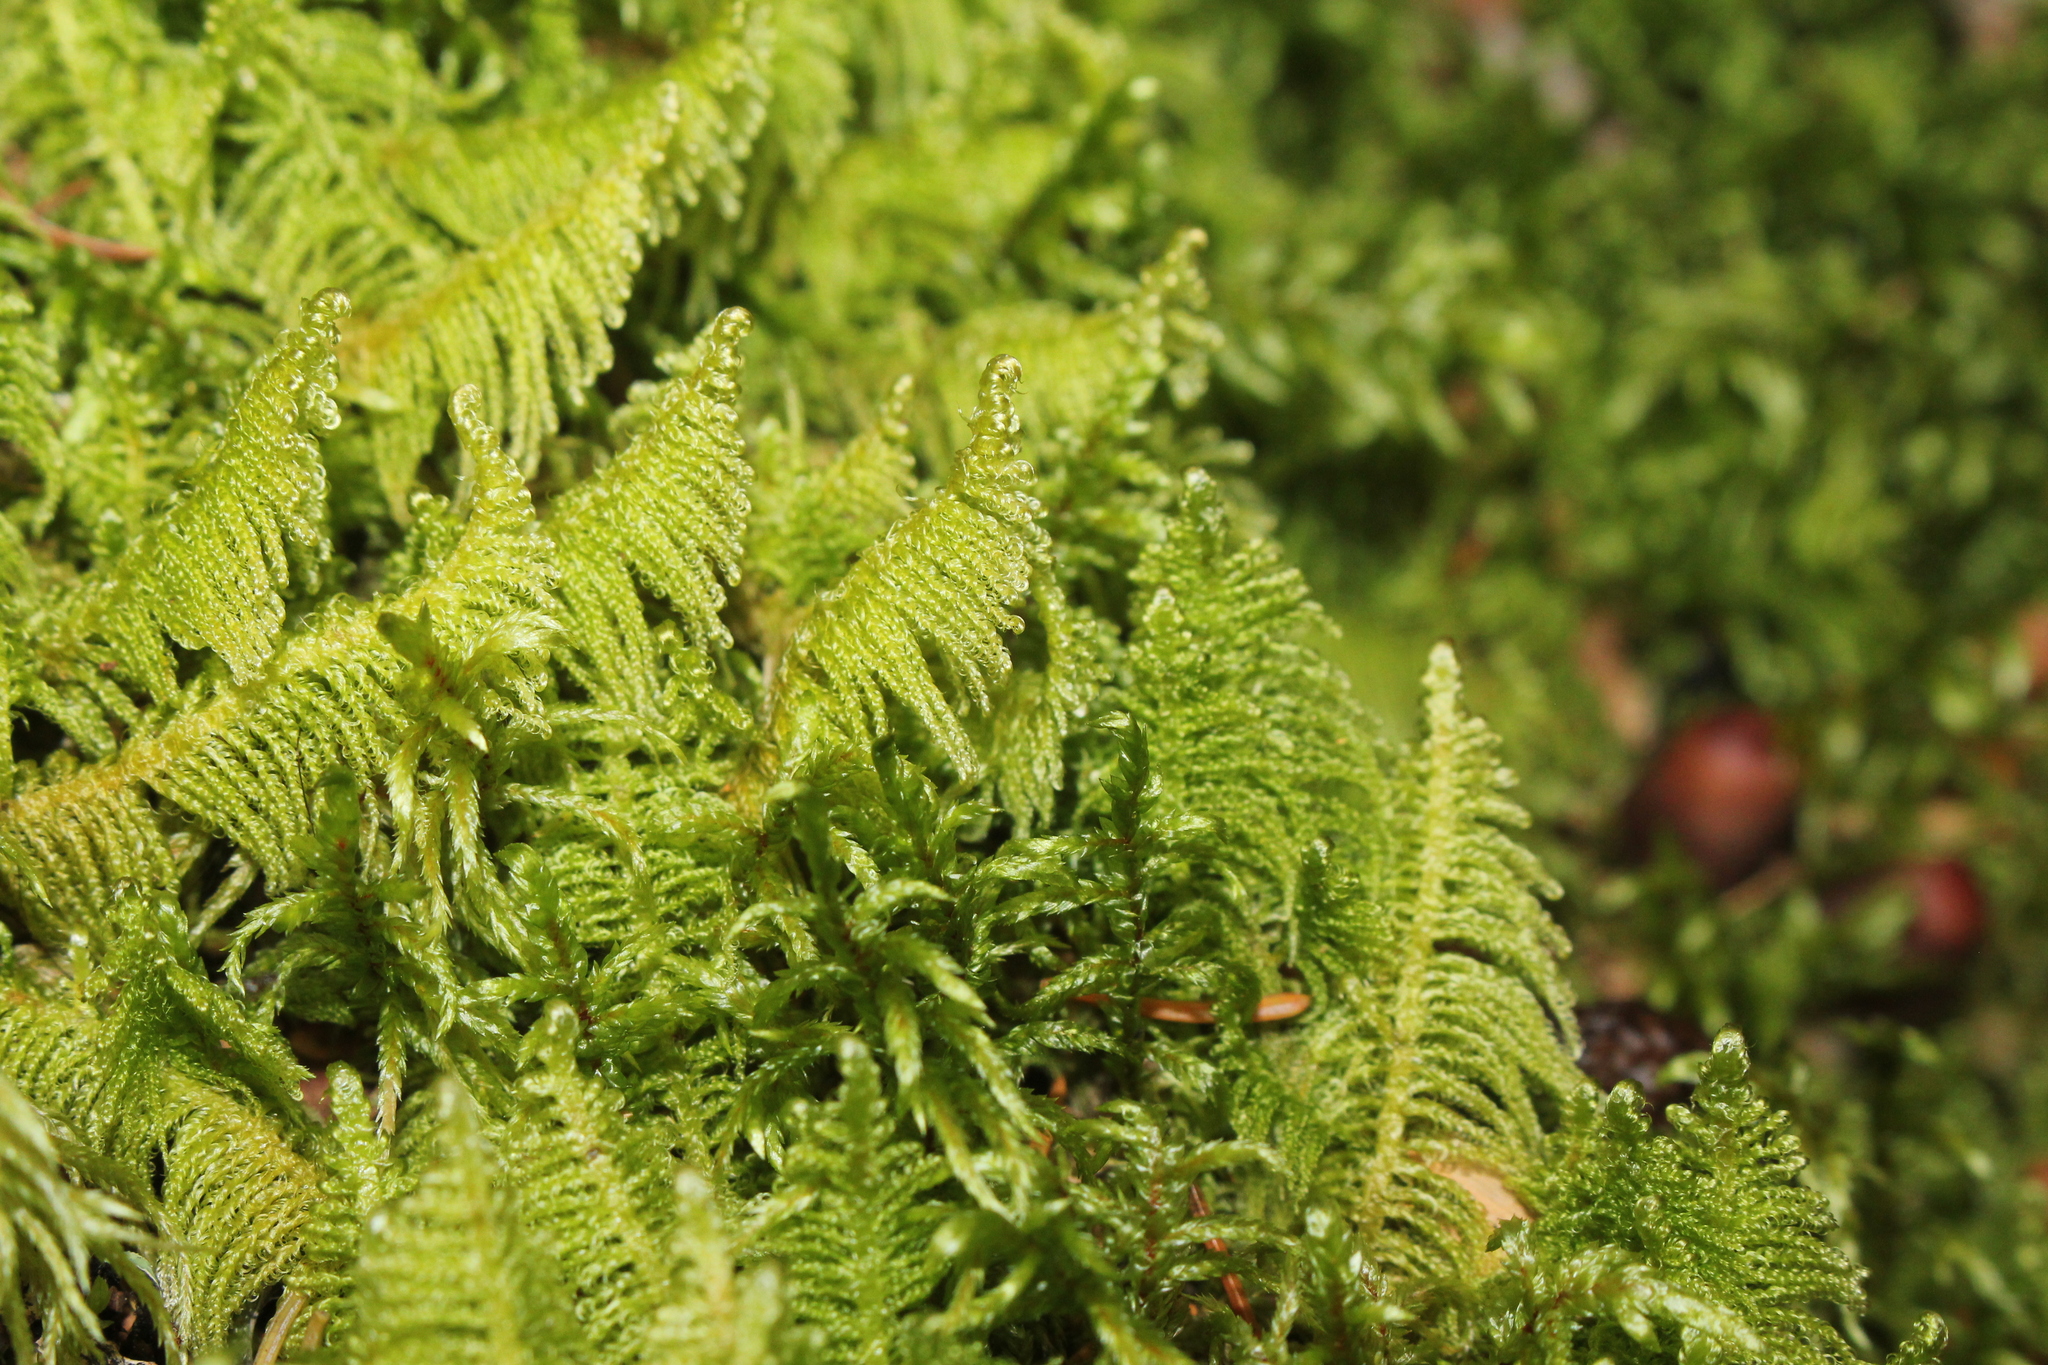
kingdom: Plantae
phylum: Bryophyta
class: Bryopsida
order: Hypnales
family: Pylaisiaceae
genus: Ptilium
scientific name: Ptilium crista-castrensis
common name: Knight's plume moss
